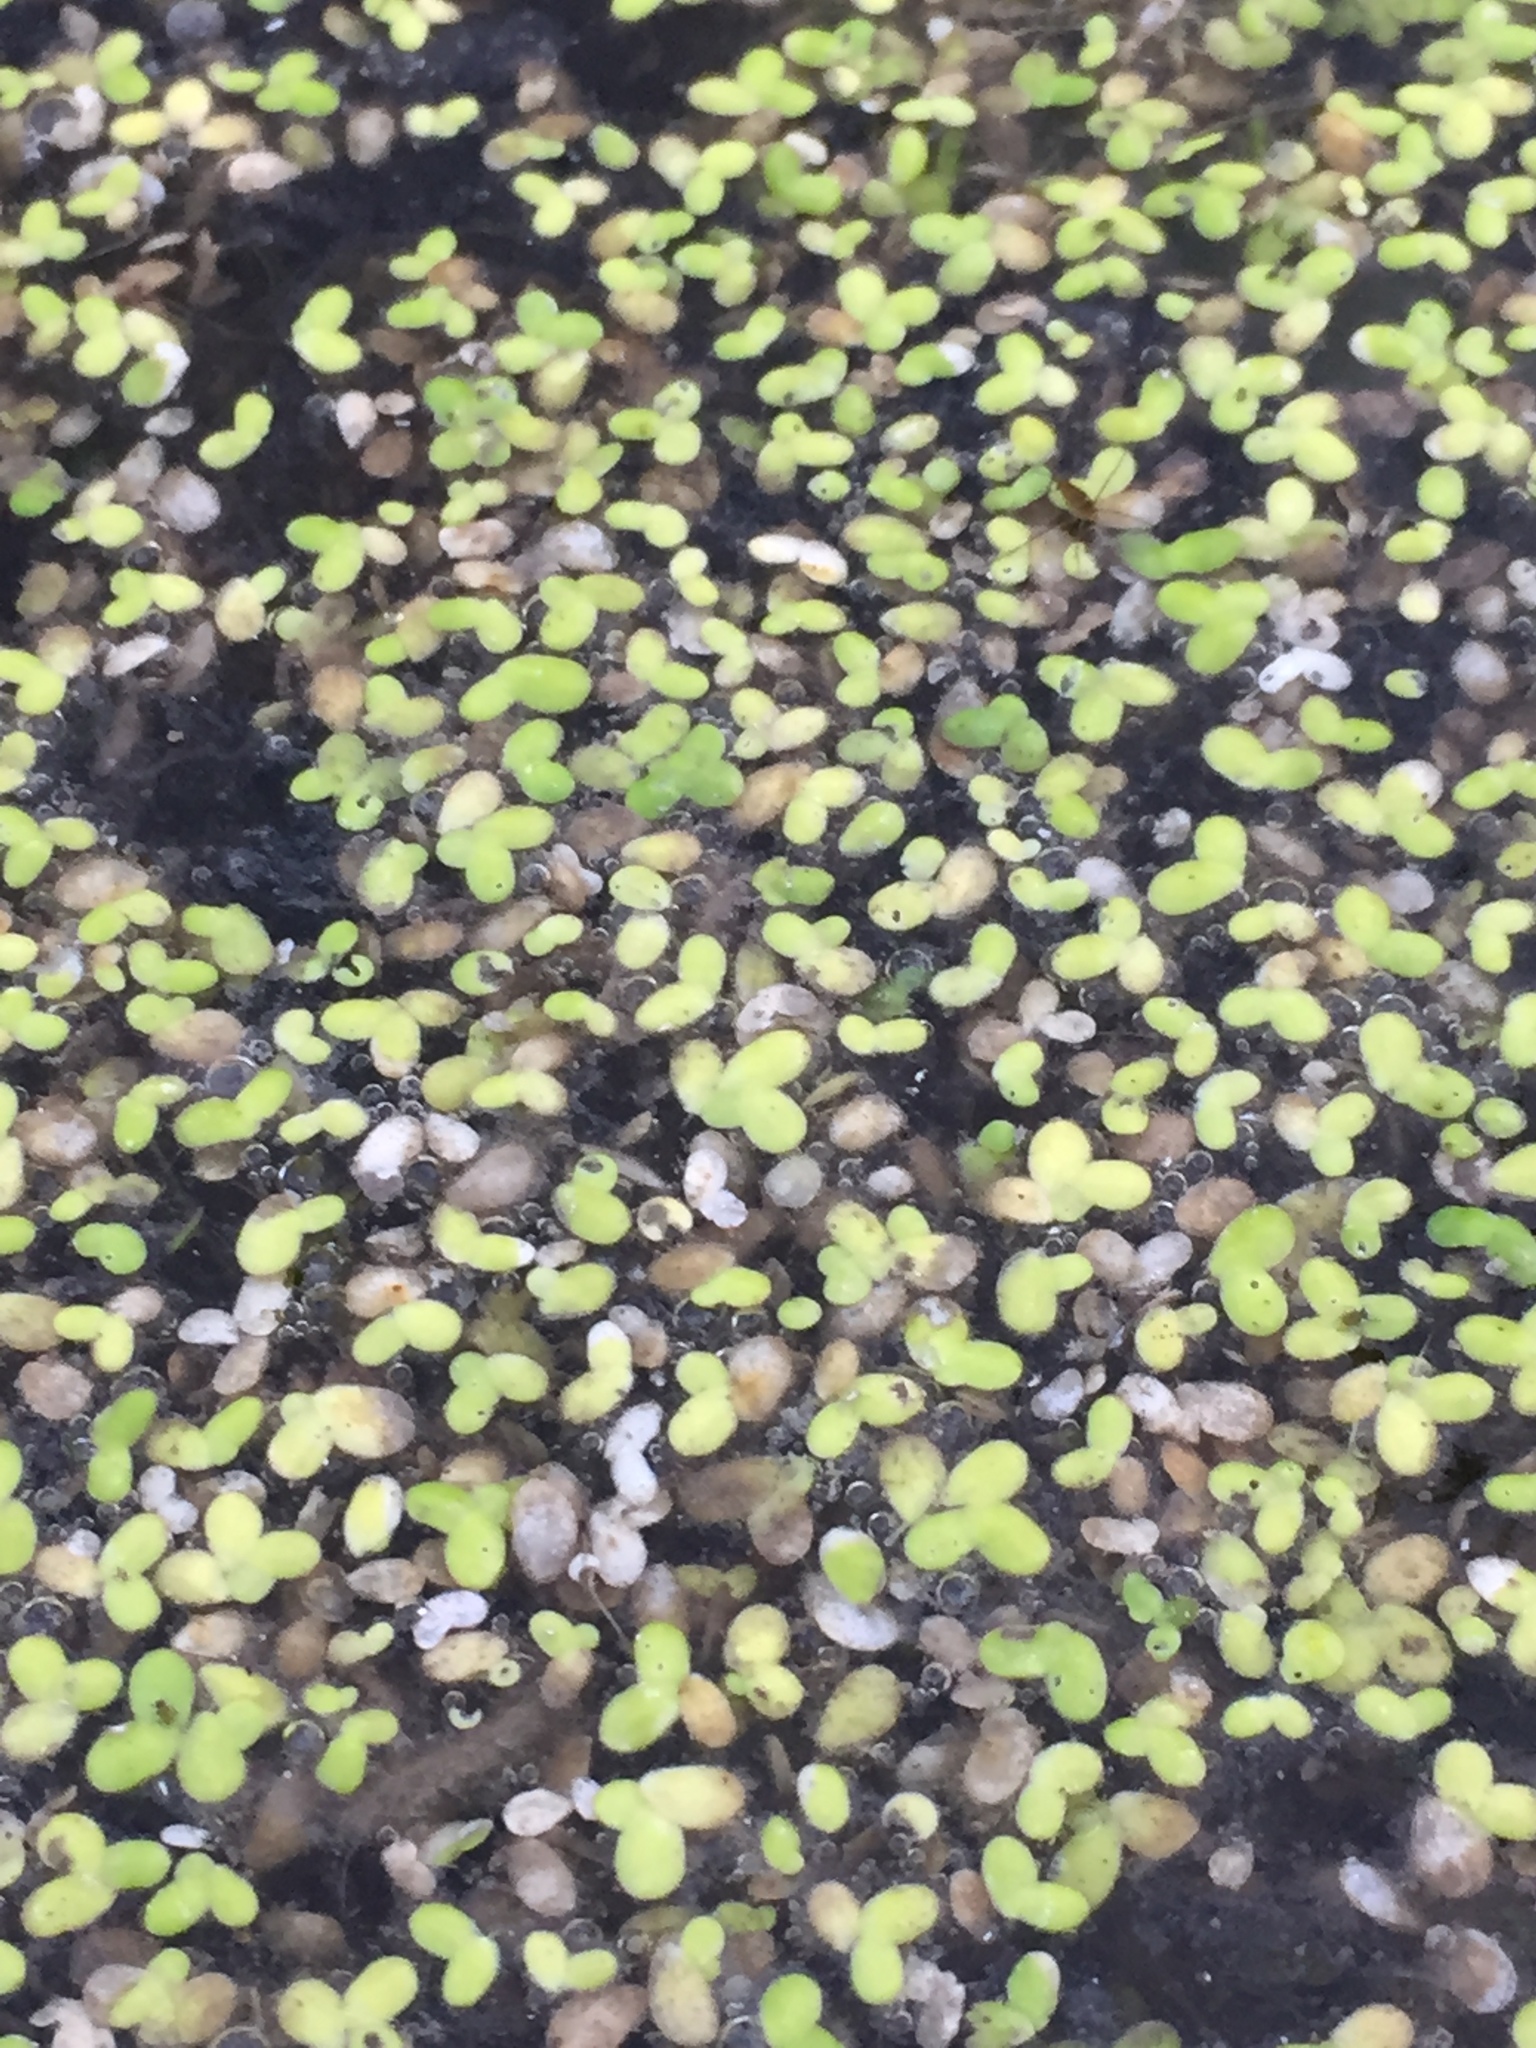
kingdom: Plantae
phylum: Tracheophyta
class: Liliopsida
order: Alismatales
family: Araceae
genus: Lemna
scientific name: Lemna minor
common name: Common duckweed
